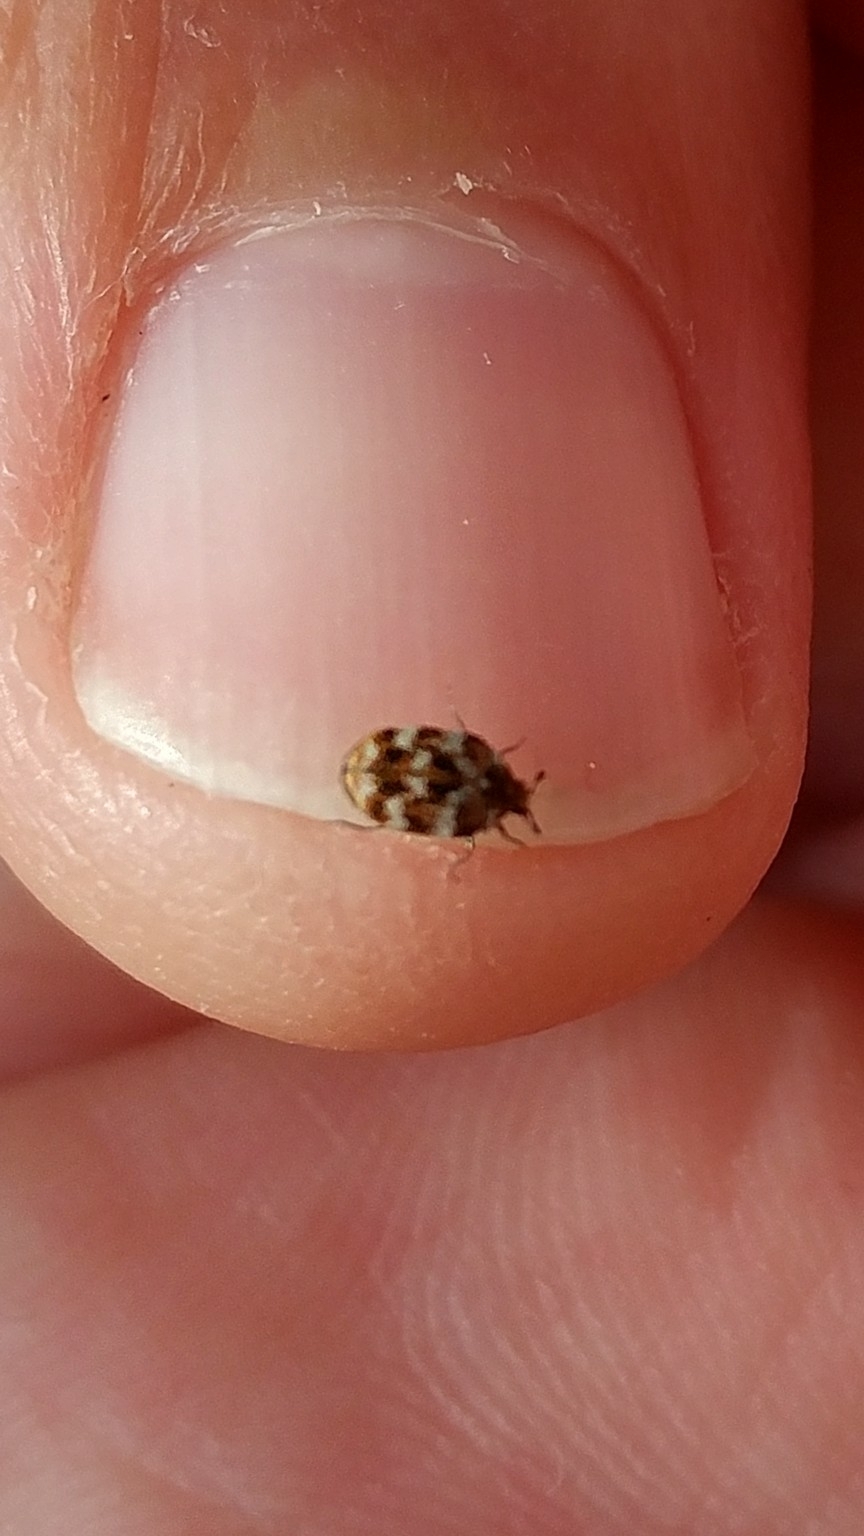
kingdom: Animalia
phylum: Arthropoda
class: Insecta
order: Coleoptera
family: Dermestidae
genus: Anthrenus
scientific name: Anthrenus verbasci
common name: Varied carpet beetle
